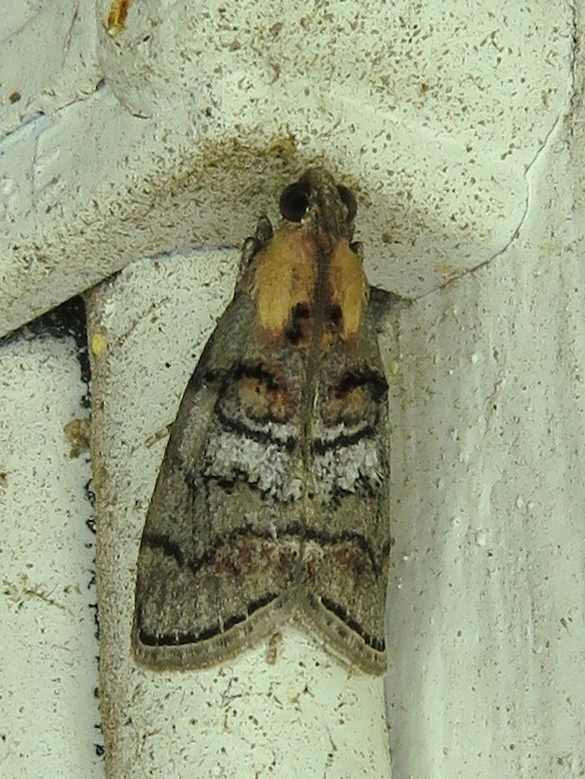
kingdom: Animalia
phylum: Arthropoda
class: Insecta
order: Lepidoptera
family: Pyralidae
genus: Pococera
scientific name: Pococera maritimalis
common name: Gray-banded pococera moth
